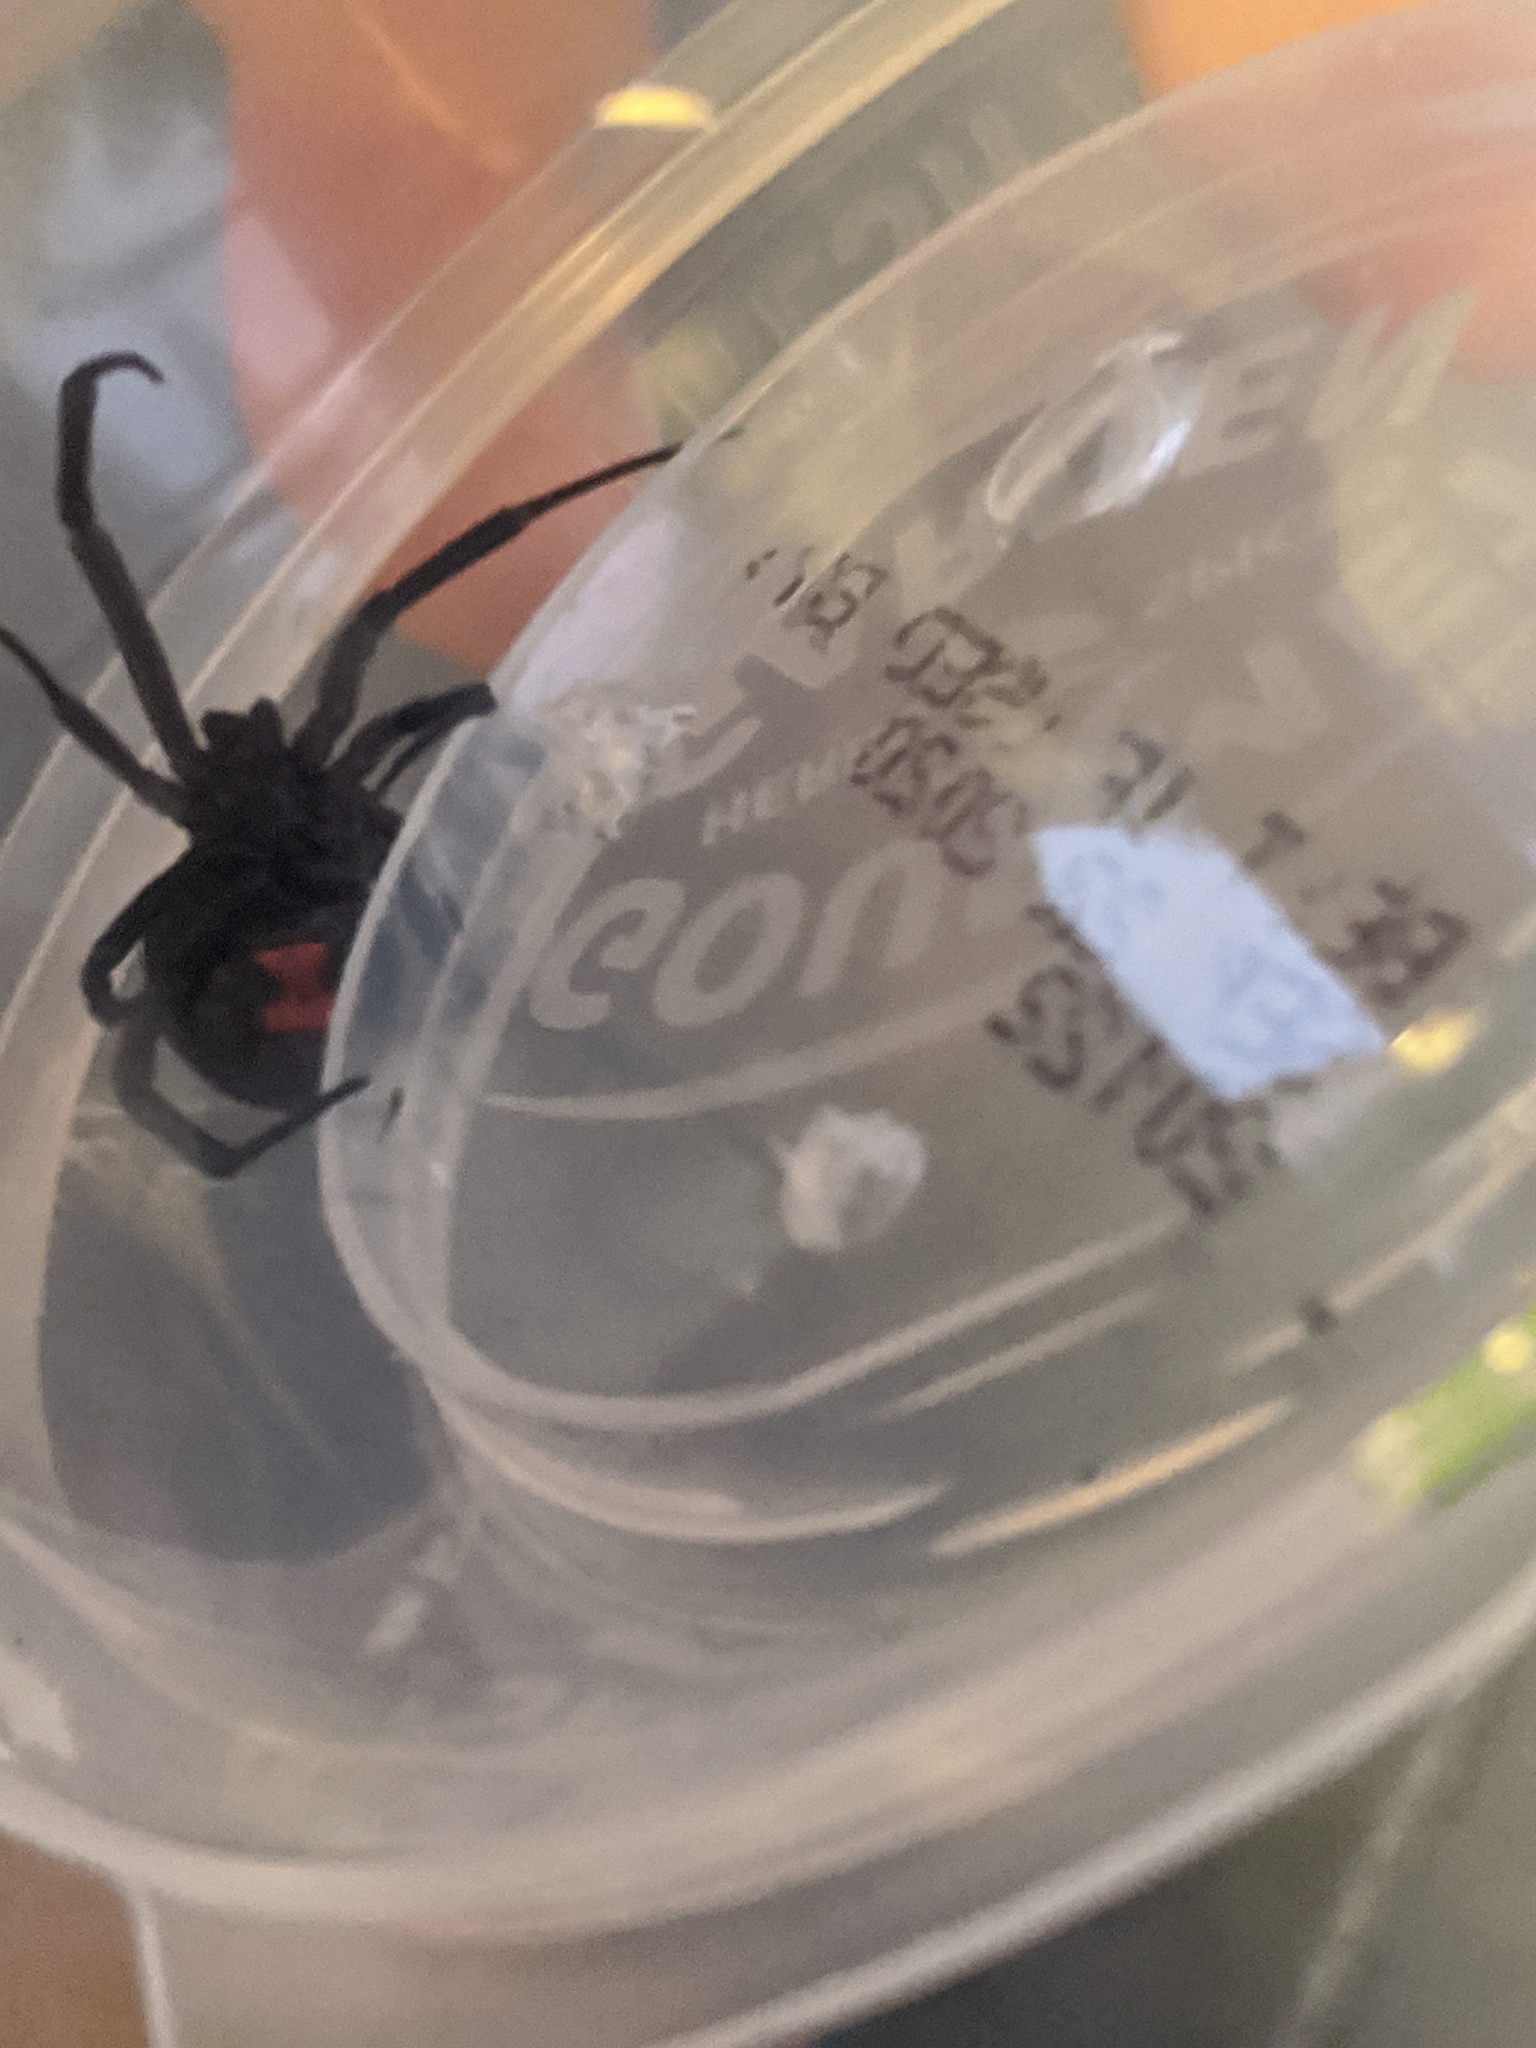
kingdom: Animalia
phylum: Arthropoda
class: Arachnida
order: Araneae
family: Theridiidae
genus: Latrodectus
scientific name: Latrodectus mactans
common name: Cobweb spiders
